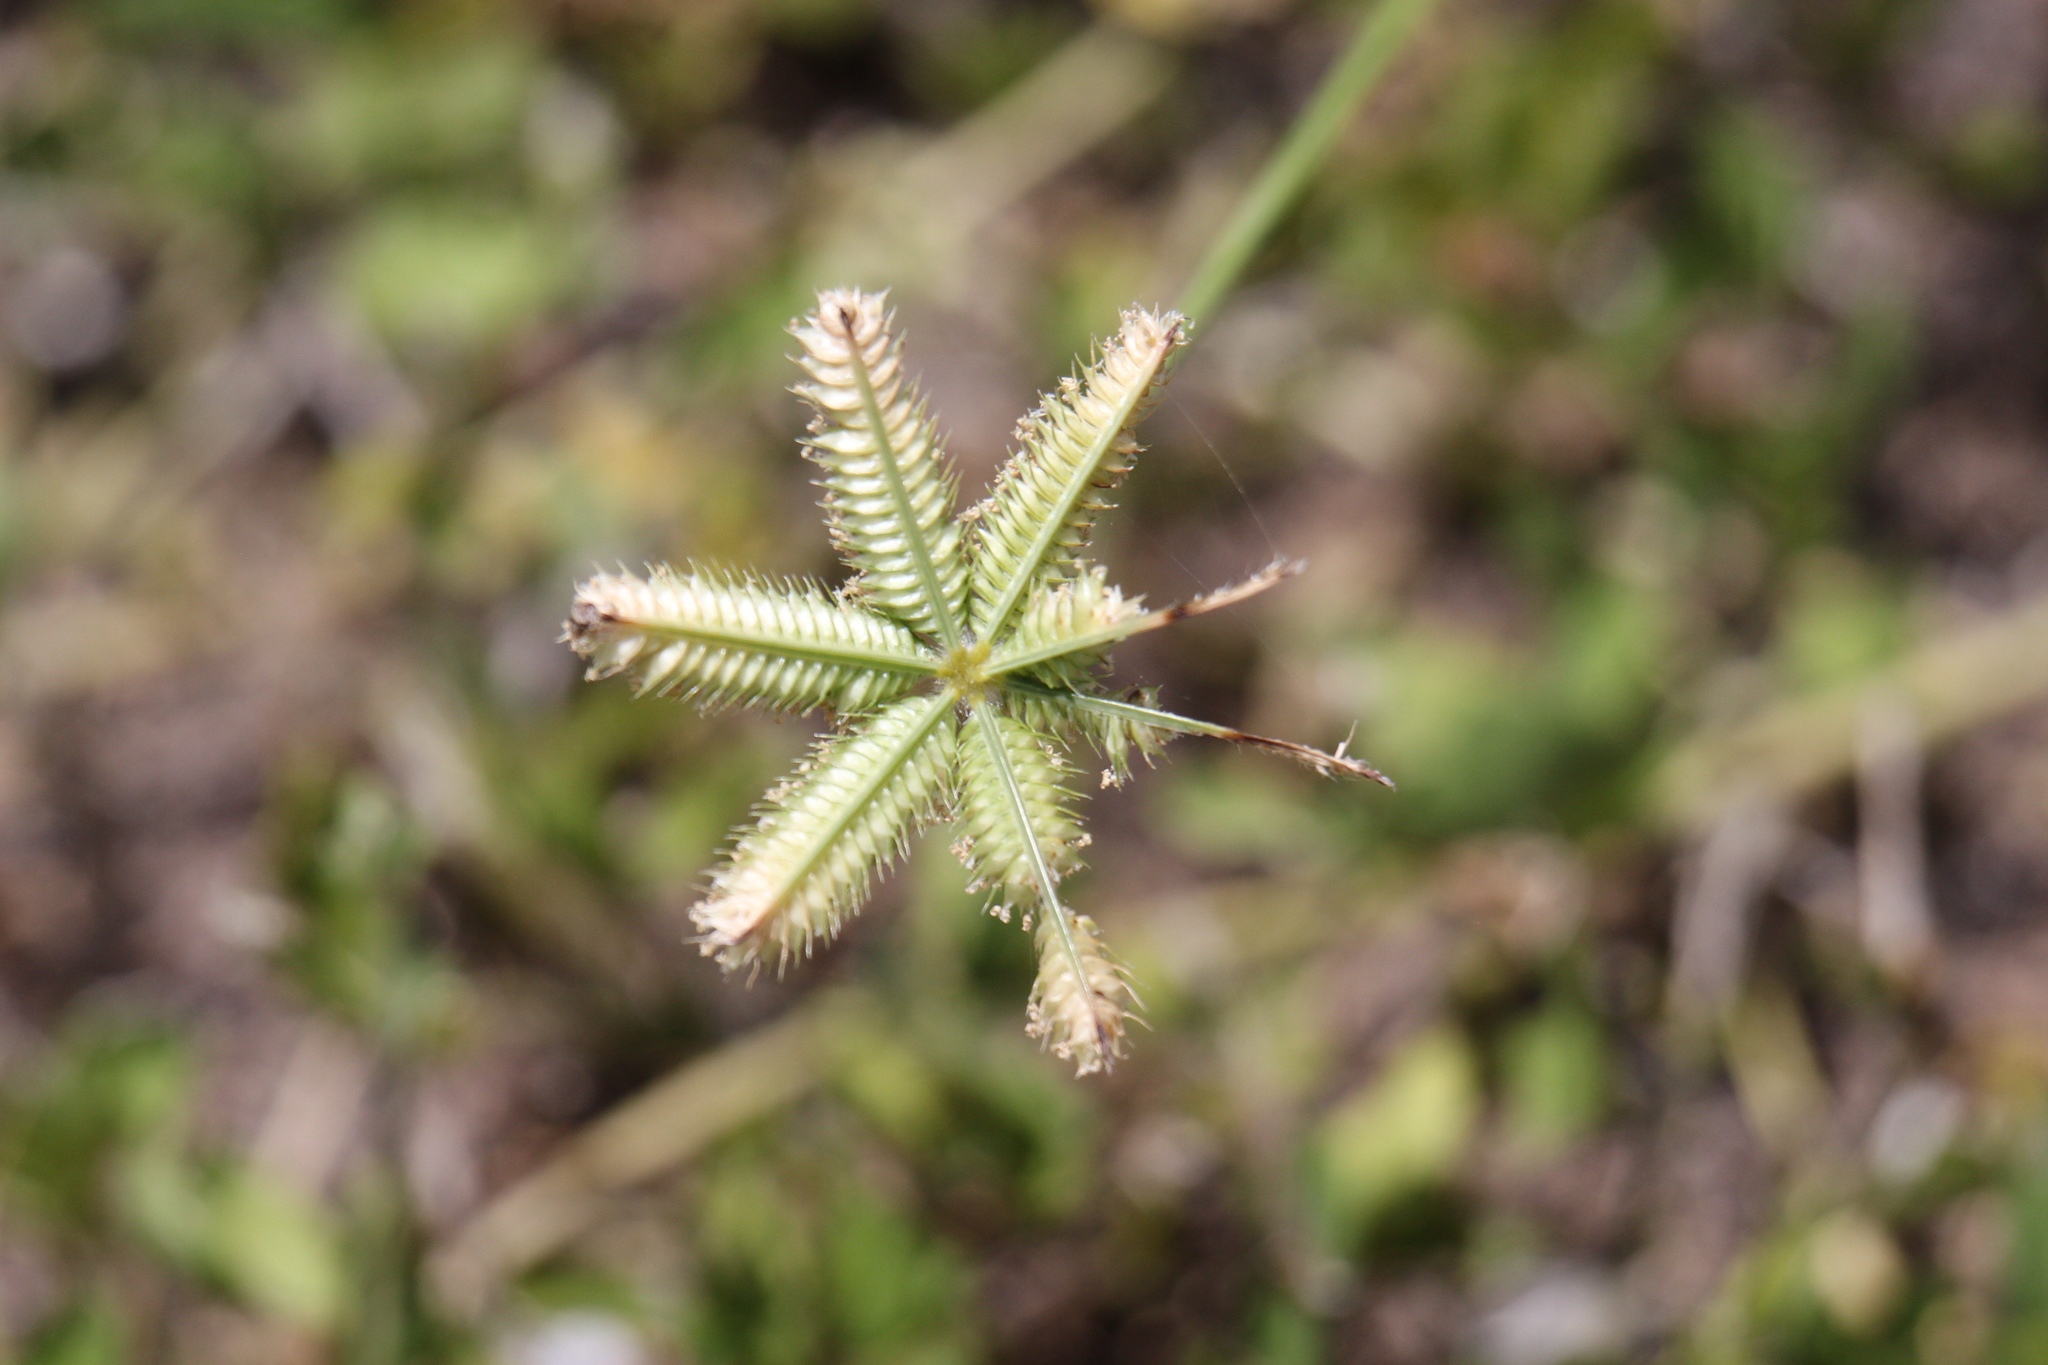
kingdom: Plantae
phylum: Tracheophyta
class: Liliopsida
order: Poales
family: Poaceae
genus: Dactyloctenium
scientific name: Dactyloctenium aegyptium
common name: Egyptian grass
